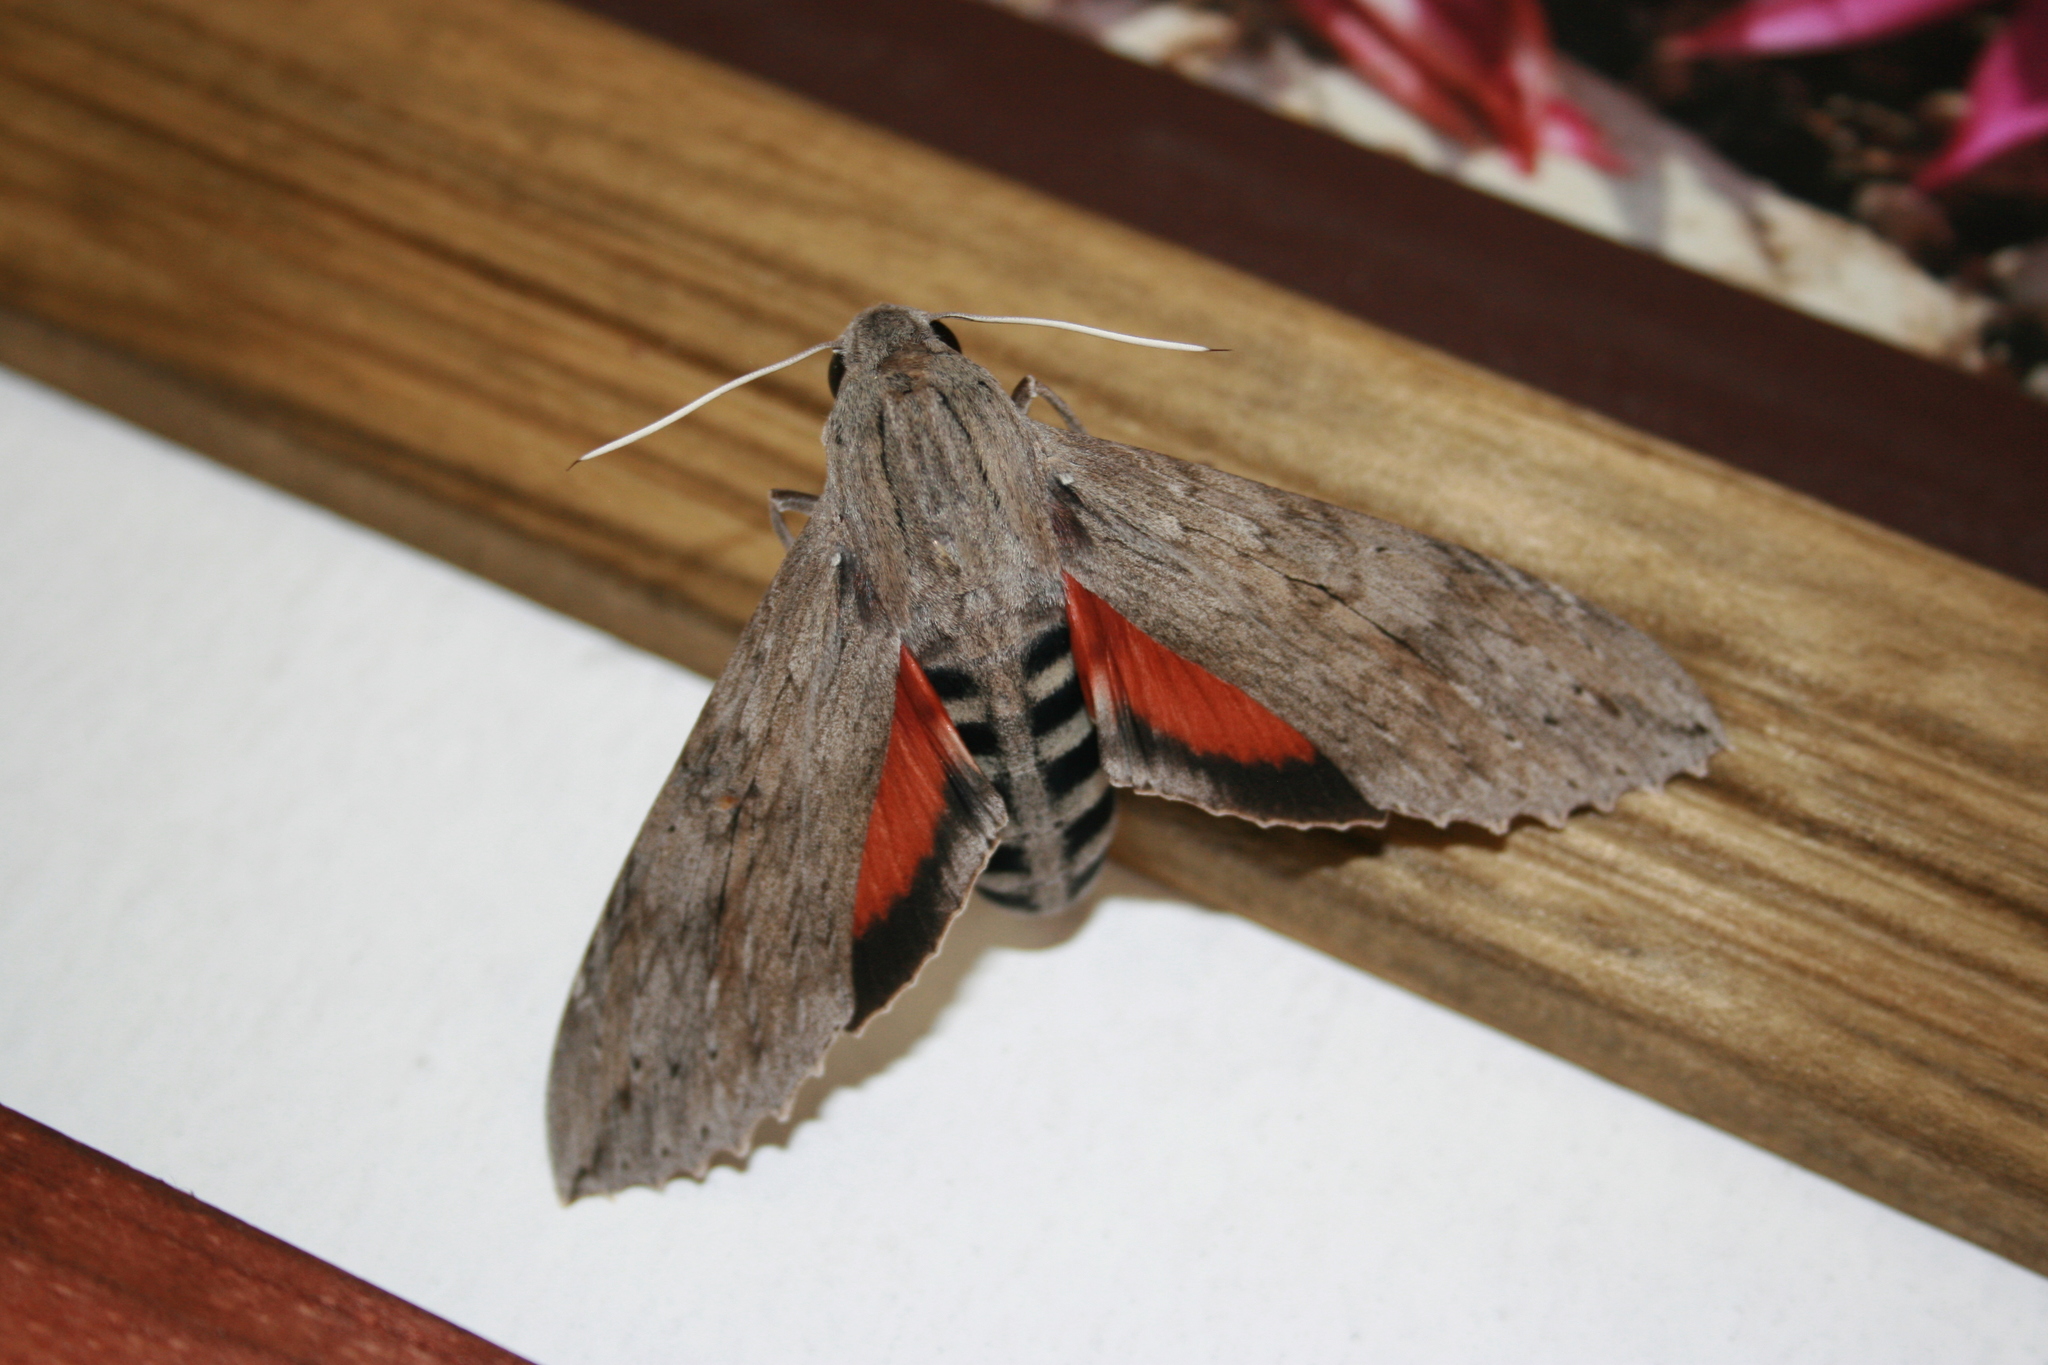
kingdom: Animalia
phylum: Arthropoda
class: Insecta
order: Lepidoptera
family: Sphingidae
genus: Erinnyis
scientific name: Erinnyis ello
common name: Ello sphinx
